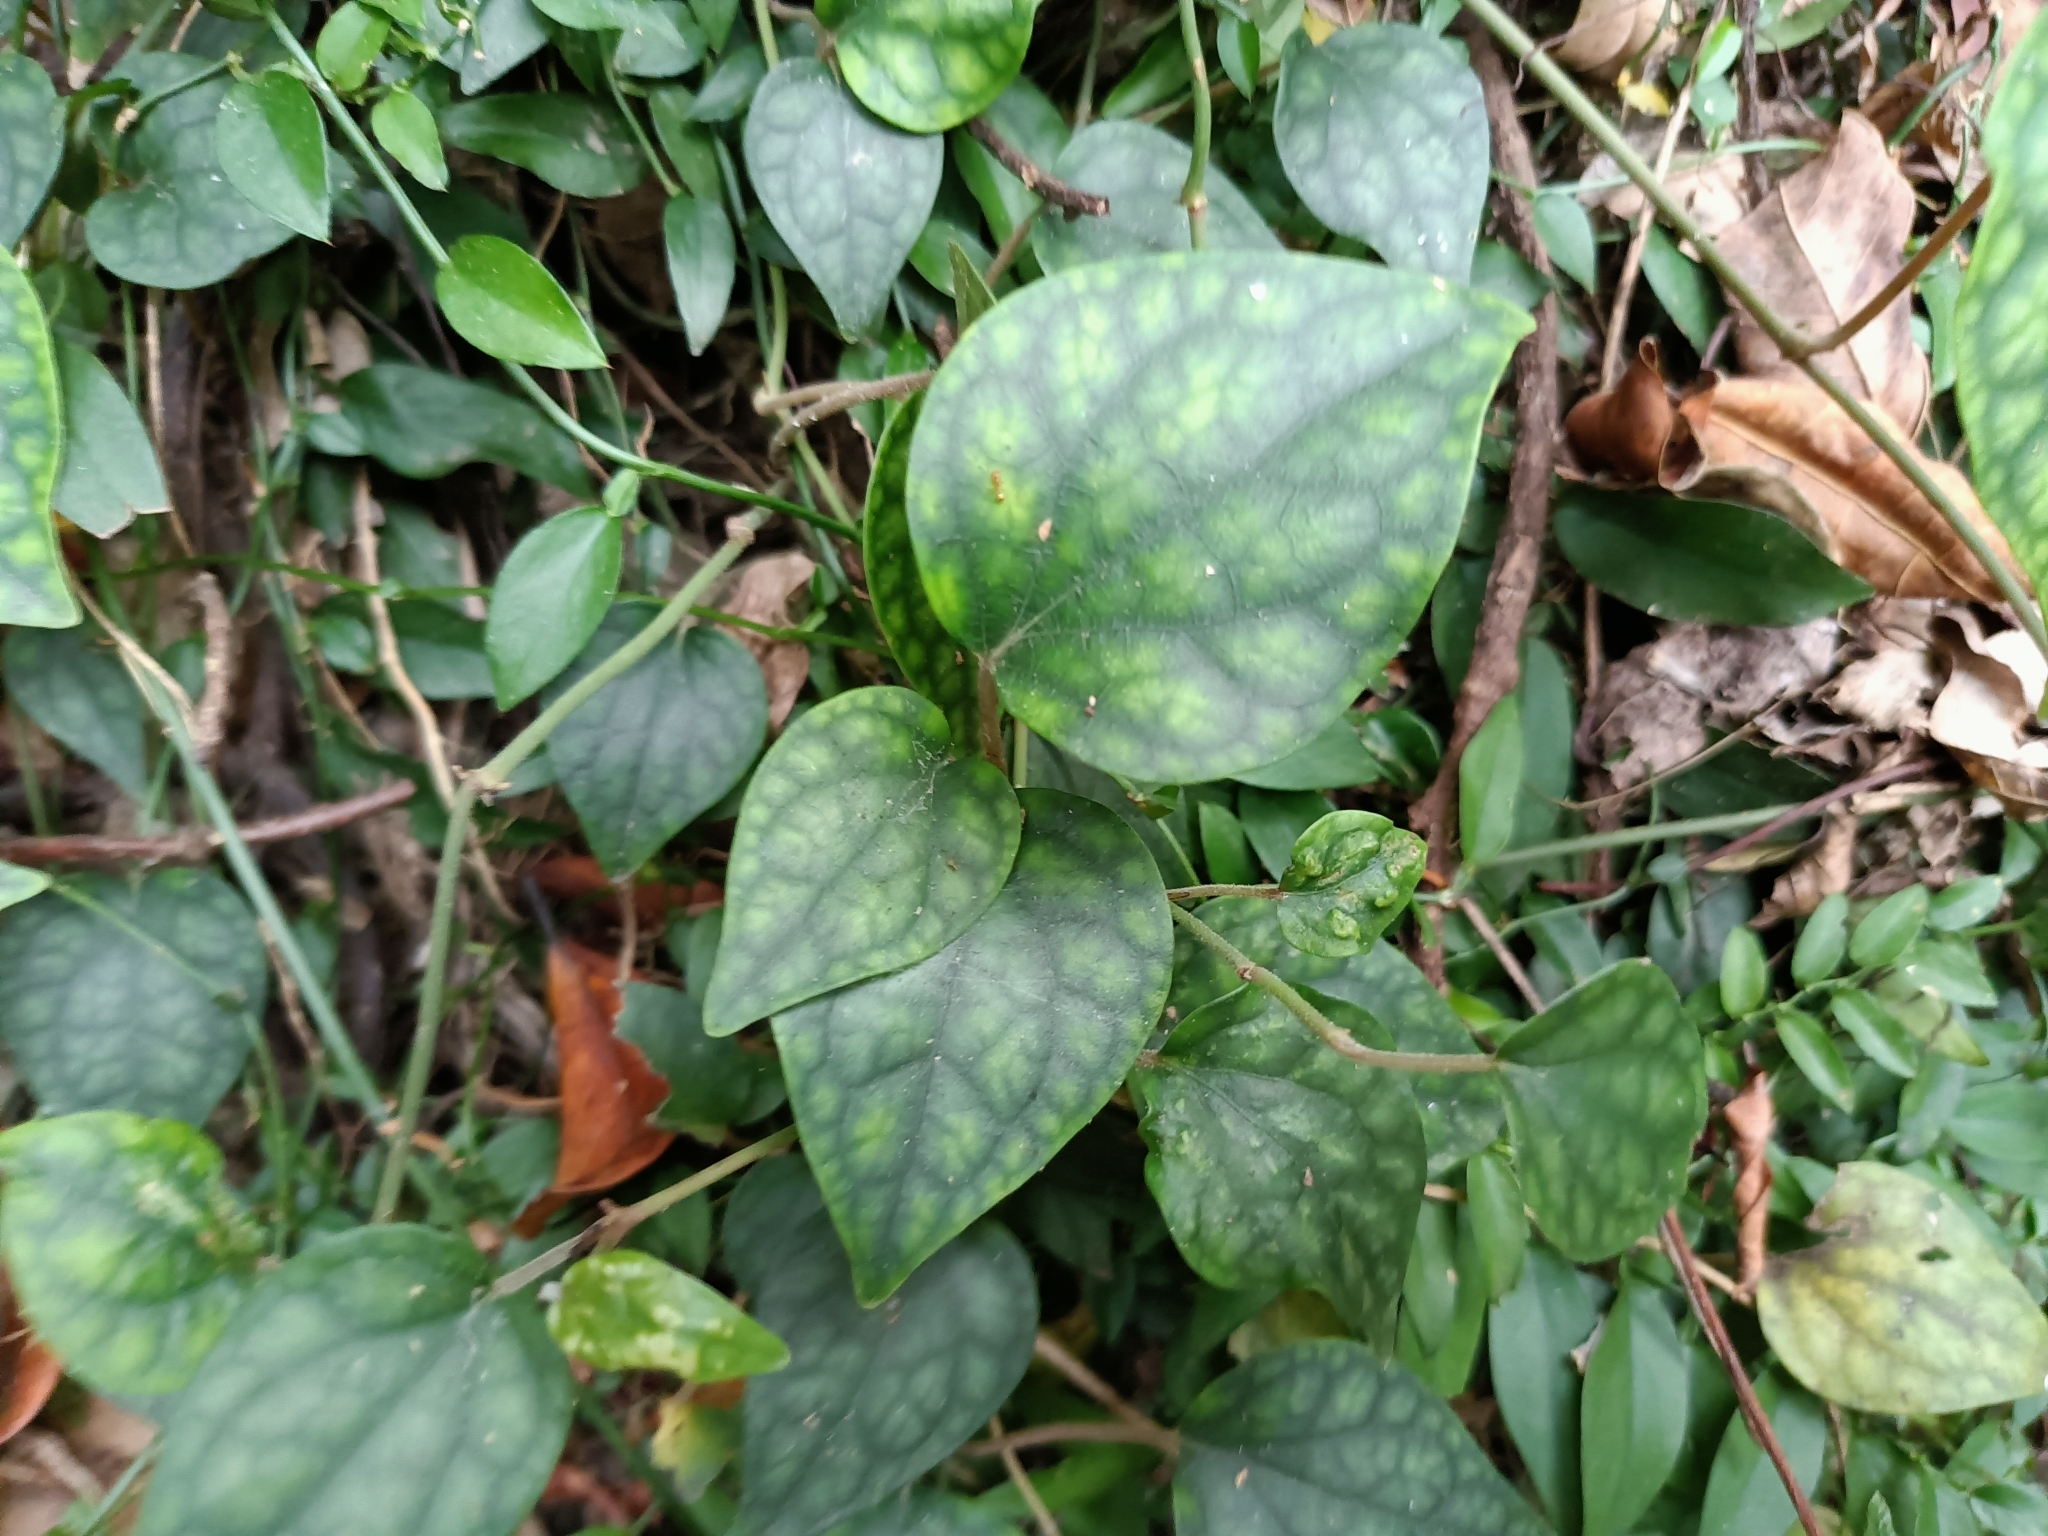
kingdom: Plantae
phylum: Tracheophyta
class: Magnoliopsida
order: Piperales
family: Piperaceae
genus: Piper
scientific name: Piper kadsura
